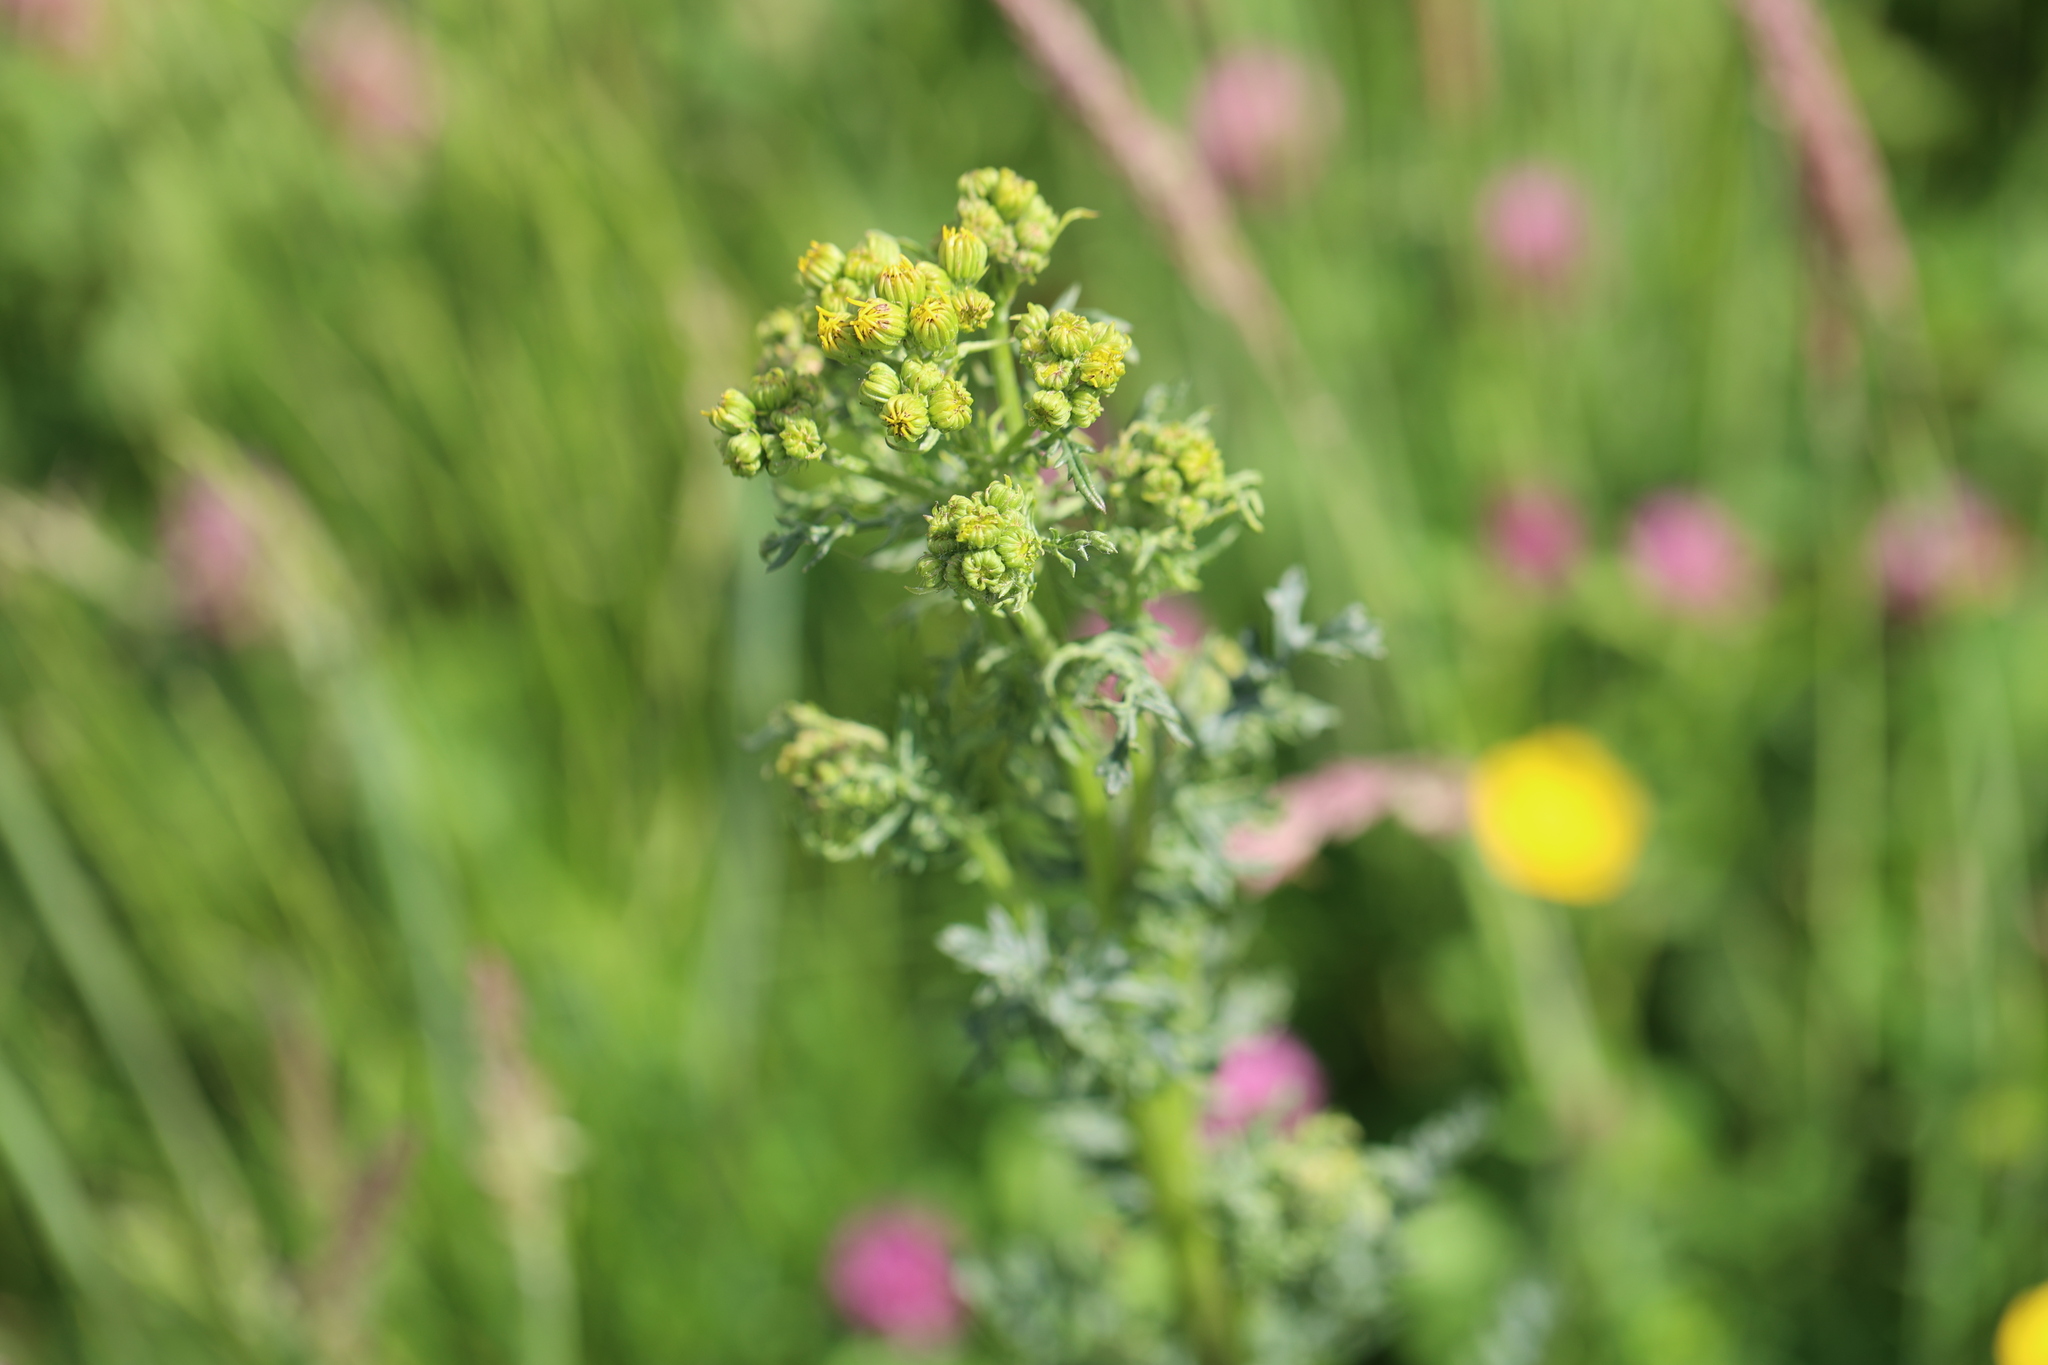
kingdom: Plantae
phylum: Tracheophyta
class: Magnoliopsida
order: Asterales
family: Asteraceae
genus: Jacobaea
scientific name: Jacobaea vulgaris
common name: Stinking willie
